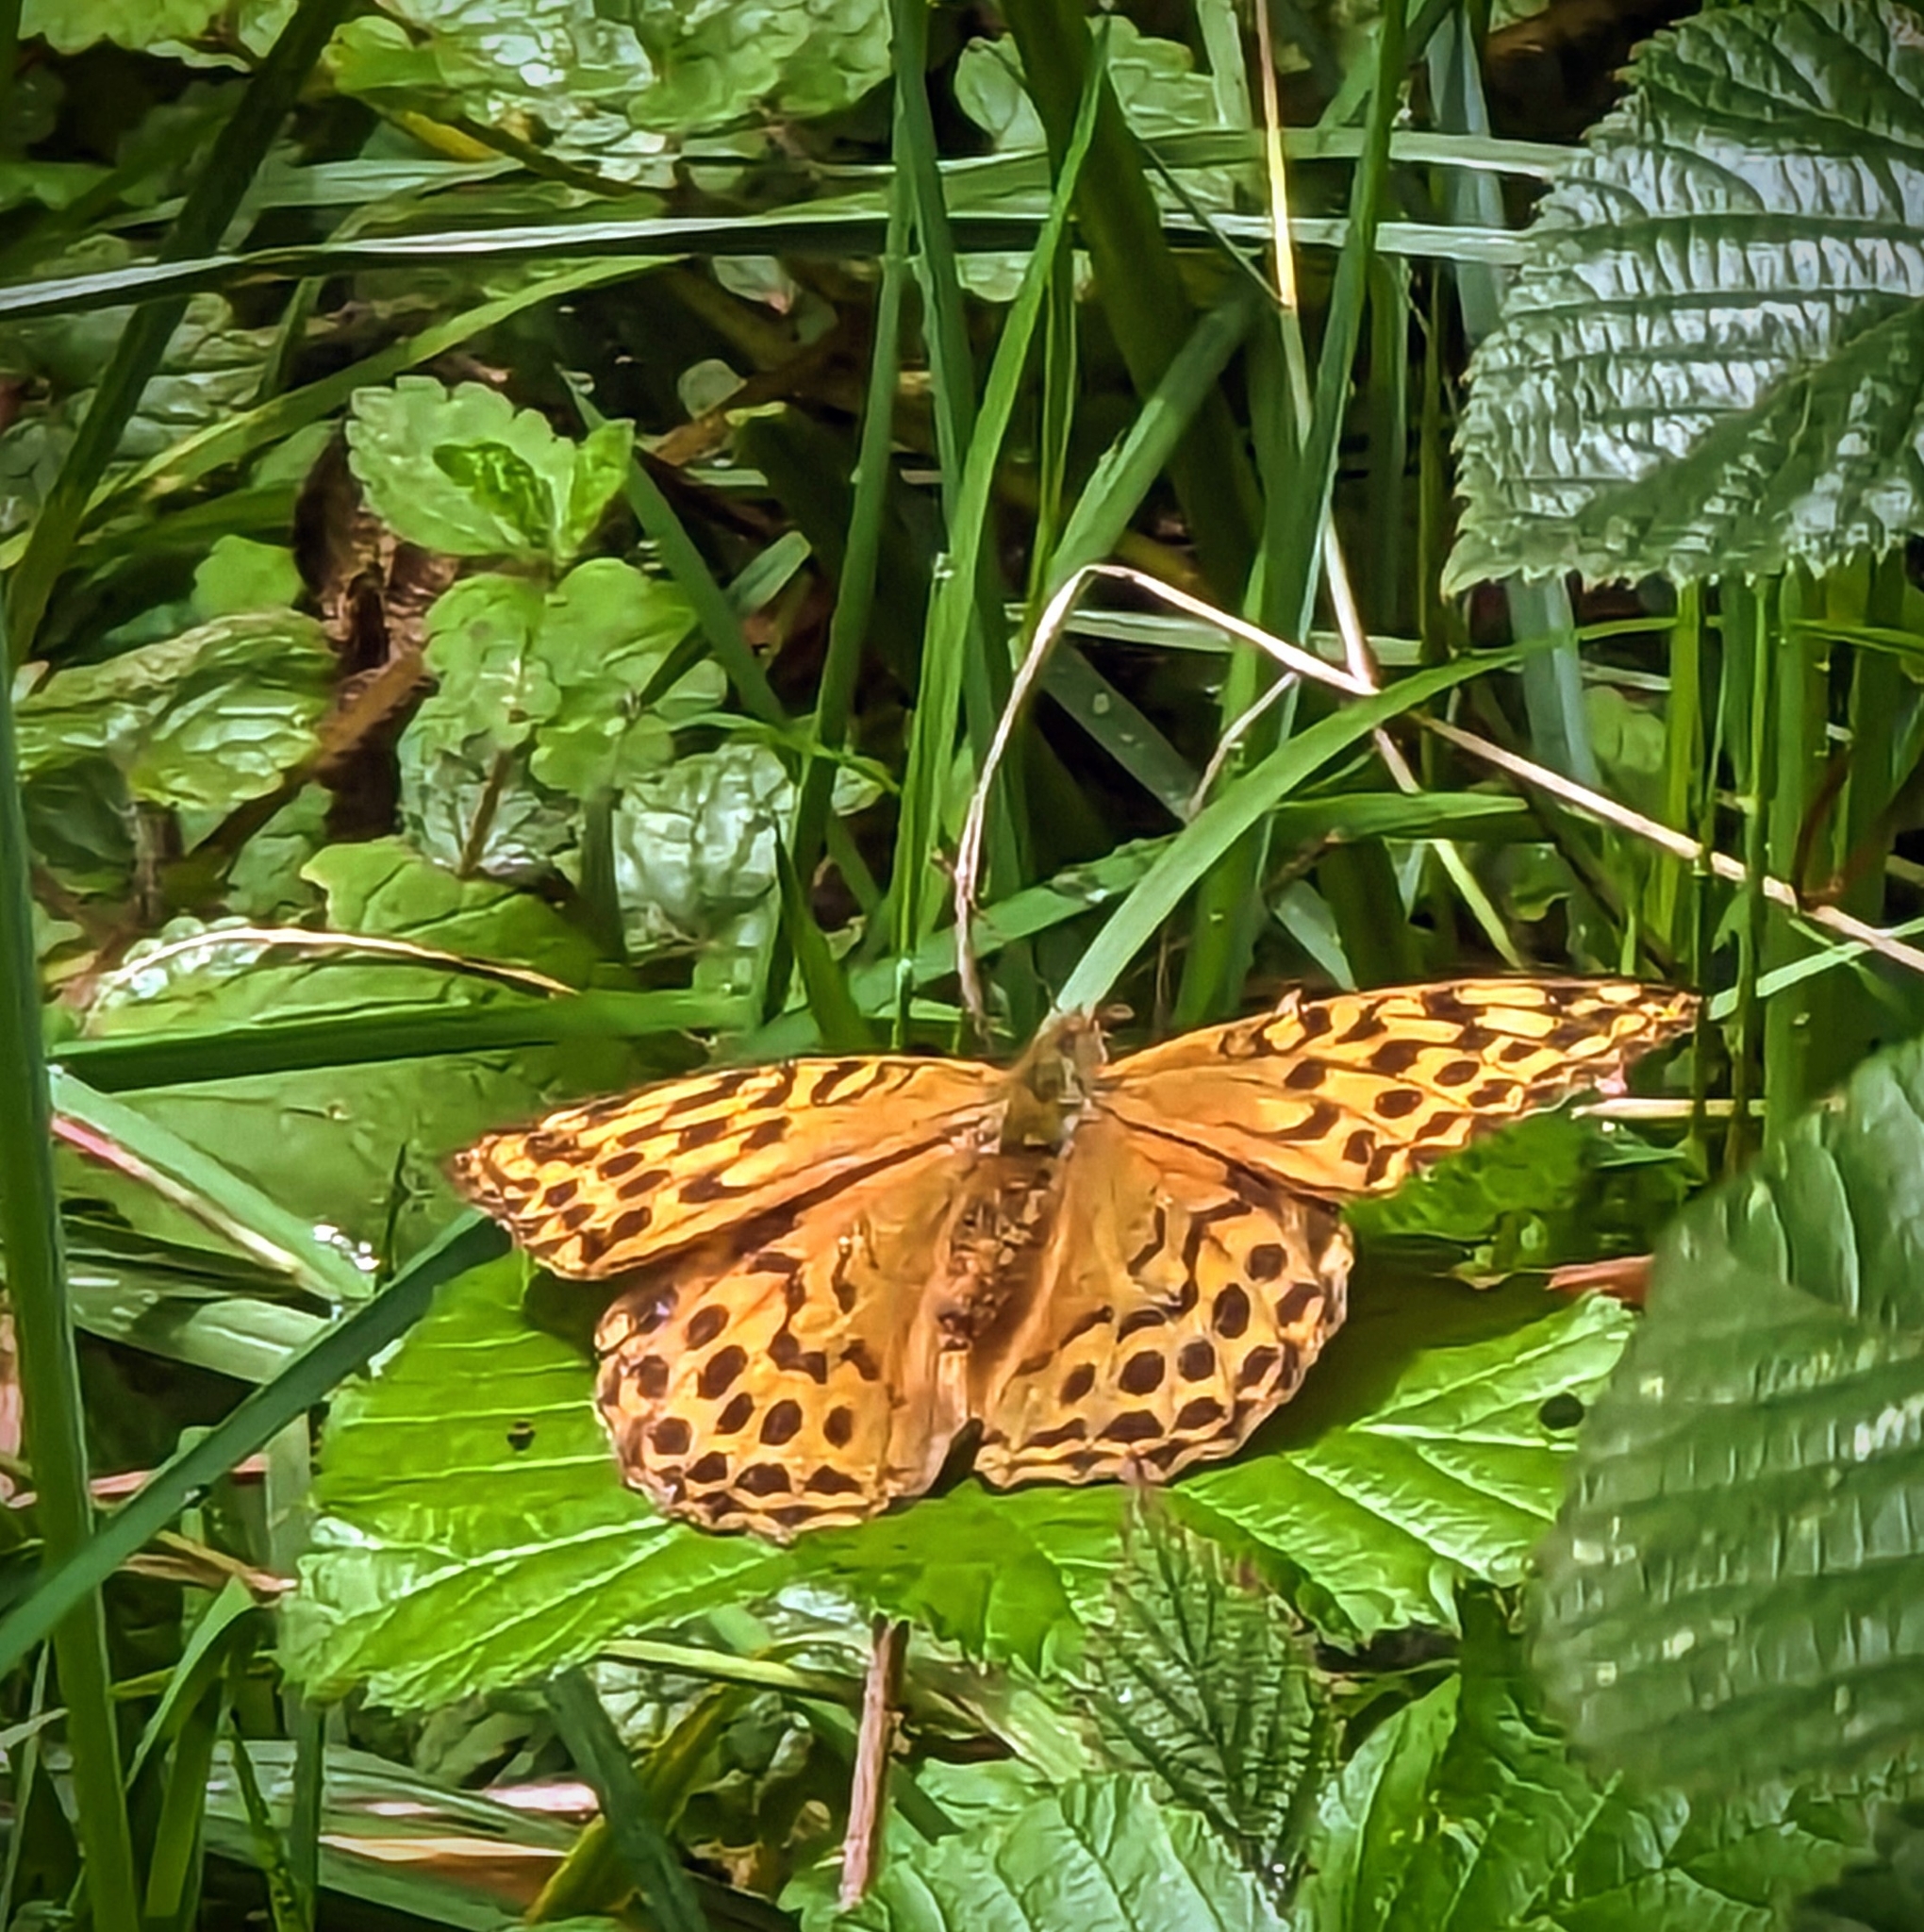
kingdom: Animalia
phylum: Arthropoda
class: Insecta
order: Lepidoptera
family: Nymphalidae
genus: Argynnis
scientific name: Argynnis paphia
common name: Silver-washed fritillary
